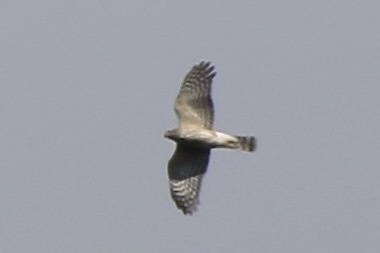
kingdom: Animalia
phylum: Chordata
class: Aves
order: Accipitriformes
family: Accipitridae
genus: Accipiter
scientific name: Accipiter cooperii
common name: Cooper's hawk
